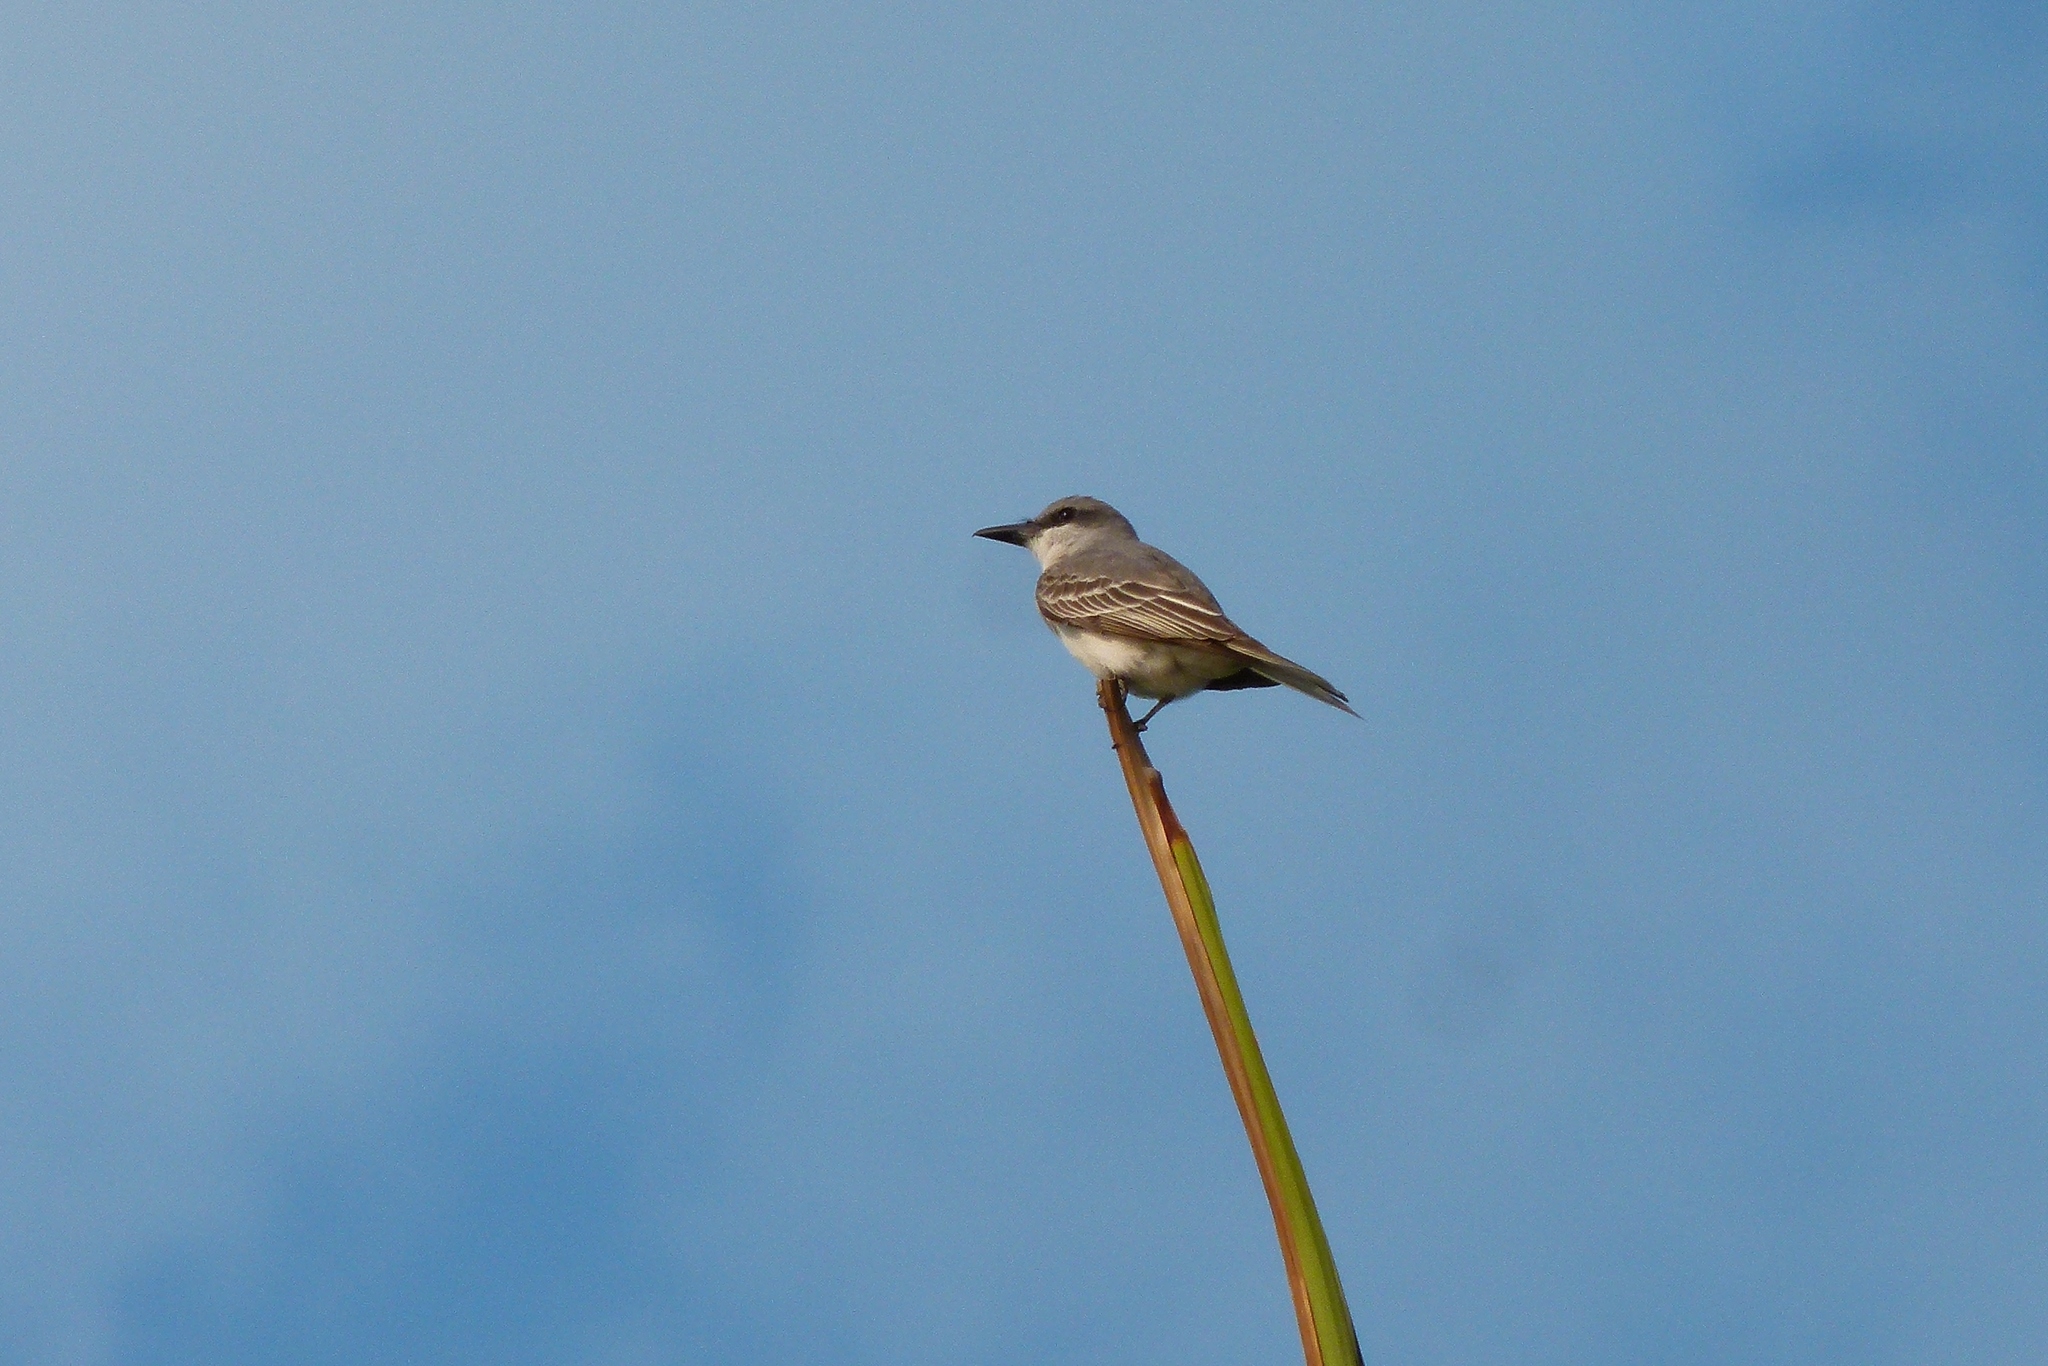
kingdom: Animalia
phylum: Chordata
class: Aves
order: Passeriformes
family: Tyrannidae
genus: Tyrannus
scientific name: Tyrannus dominicensis
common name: Gray kingbird
